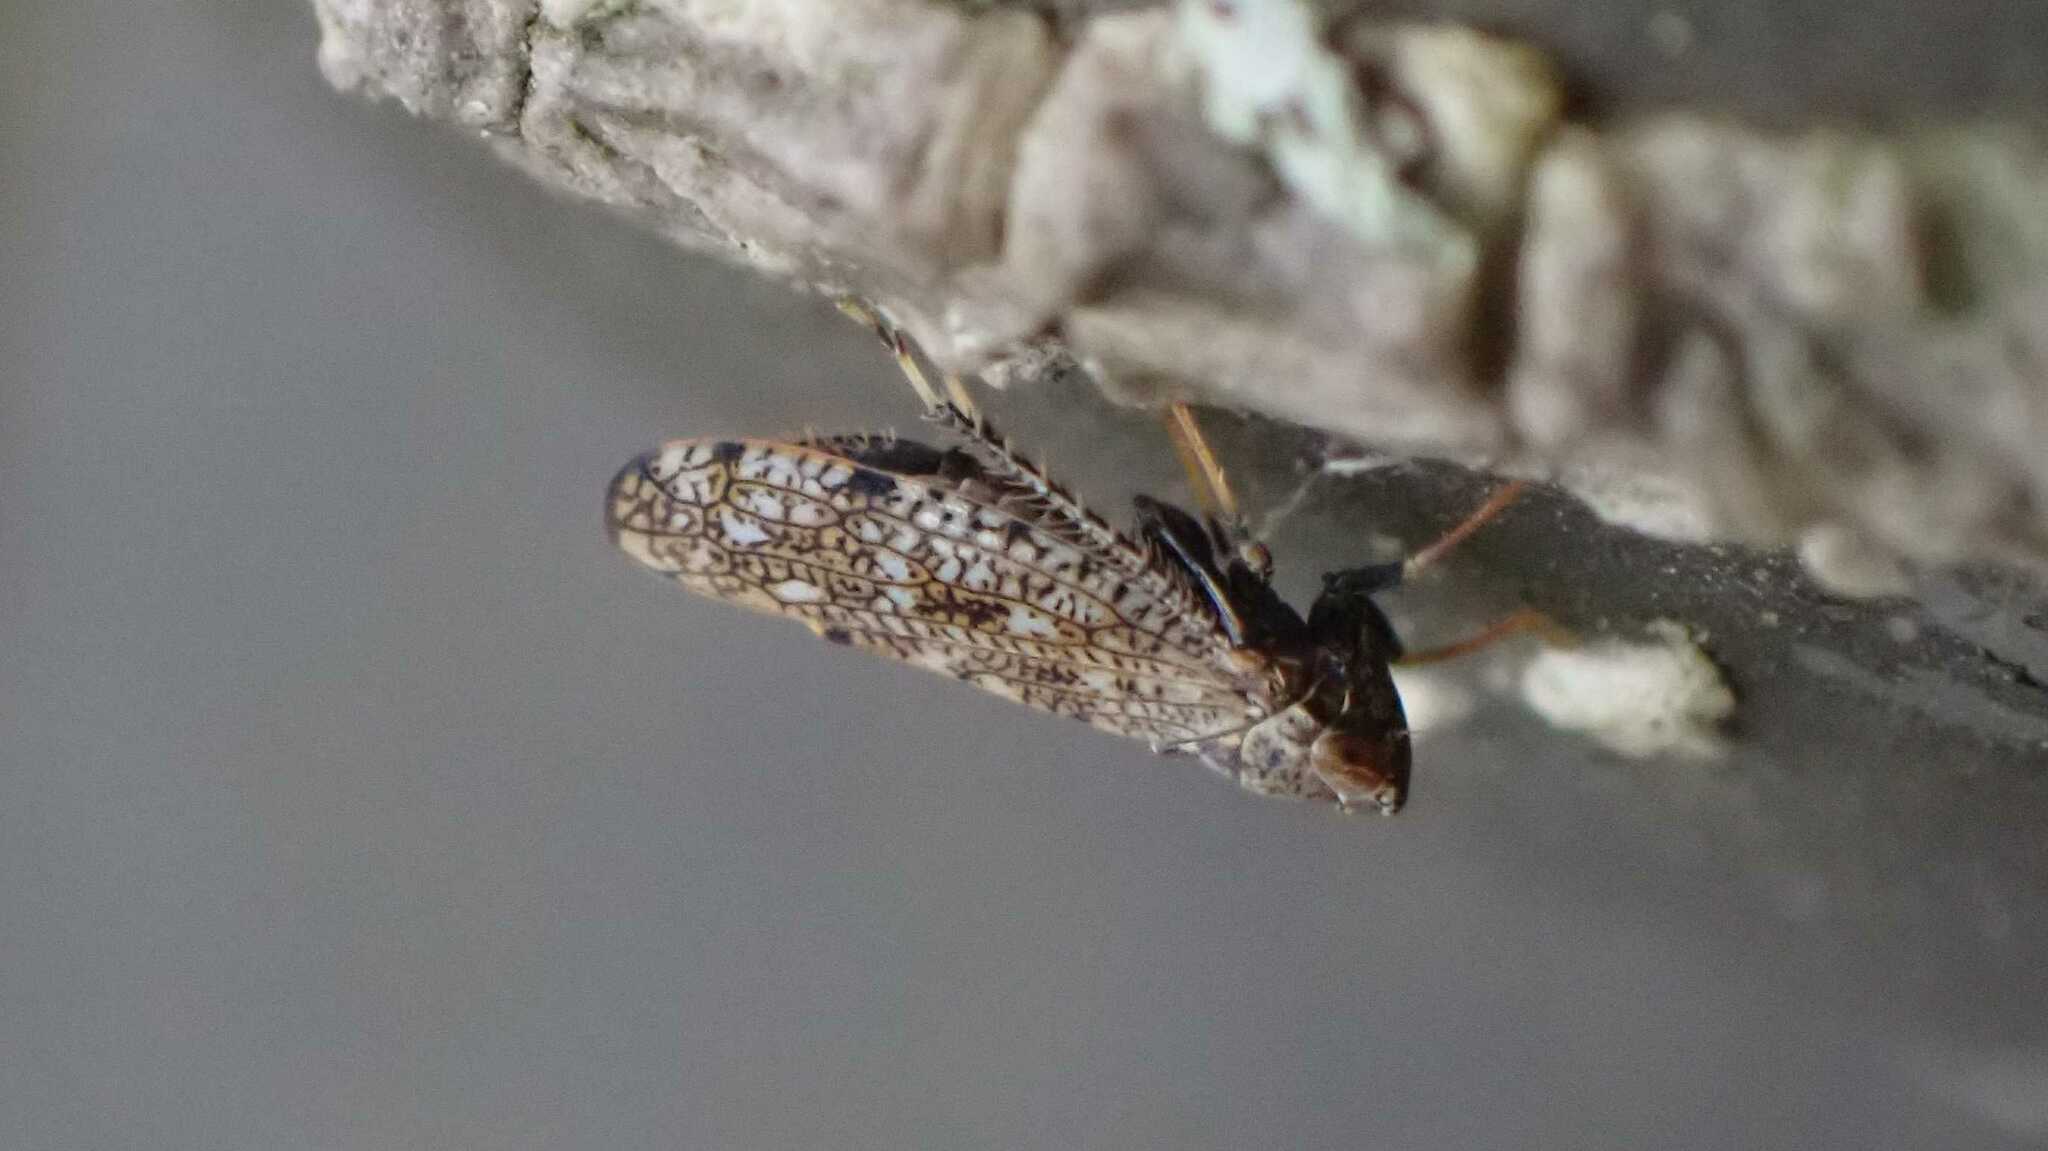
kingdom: Animalia
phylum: Arthropoda
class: Insecta
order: Hemiptera
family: Cicadellidae
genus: Orientus
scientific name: Orientus ishidae
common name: Japanese leafhopper
